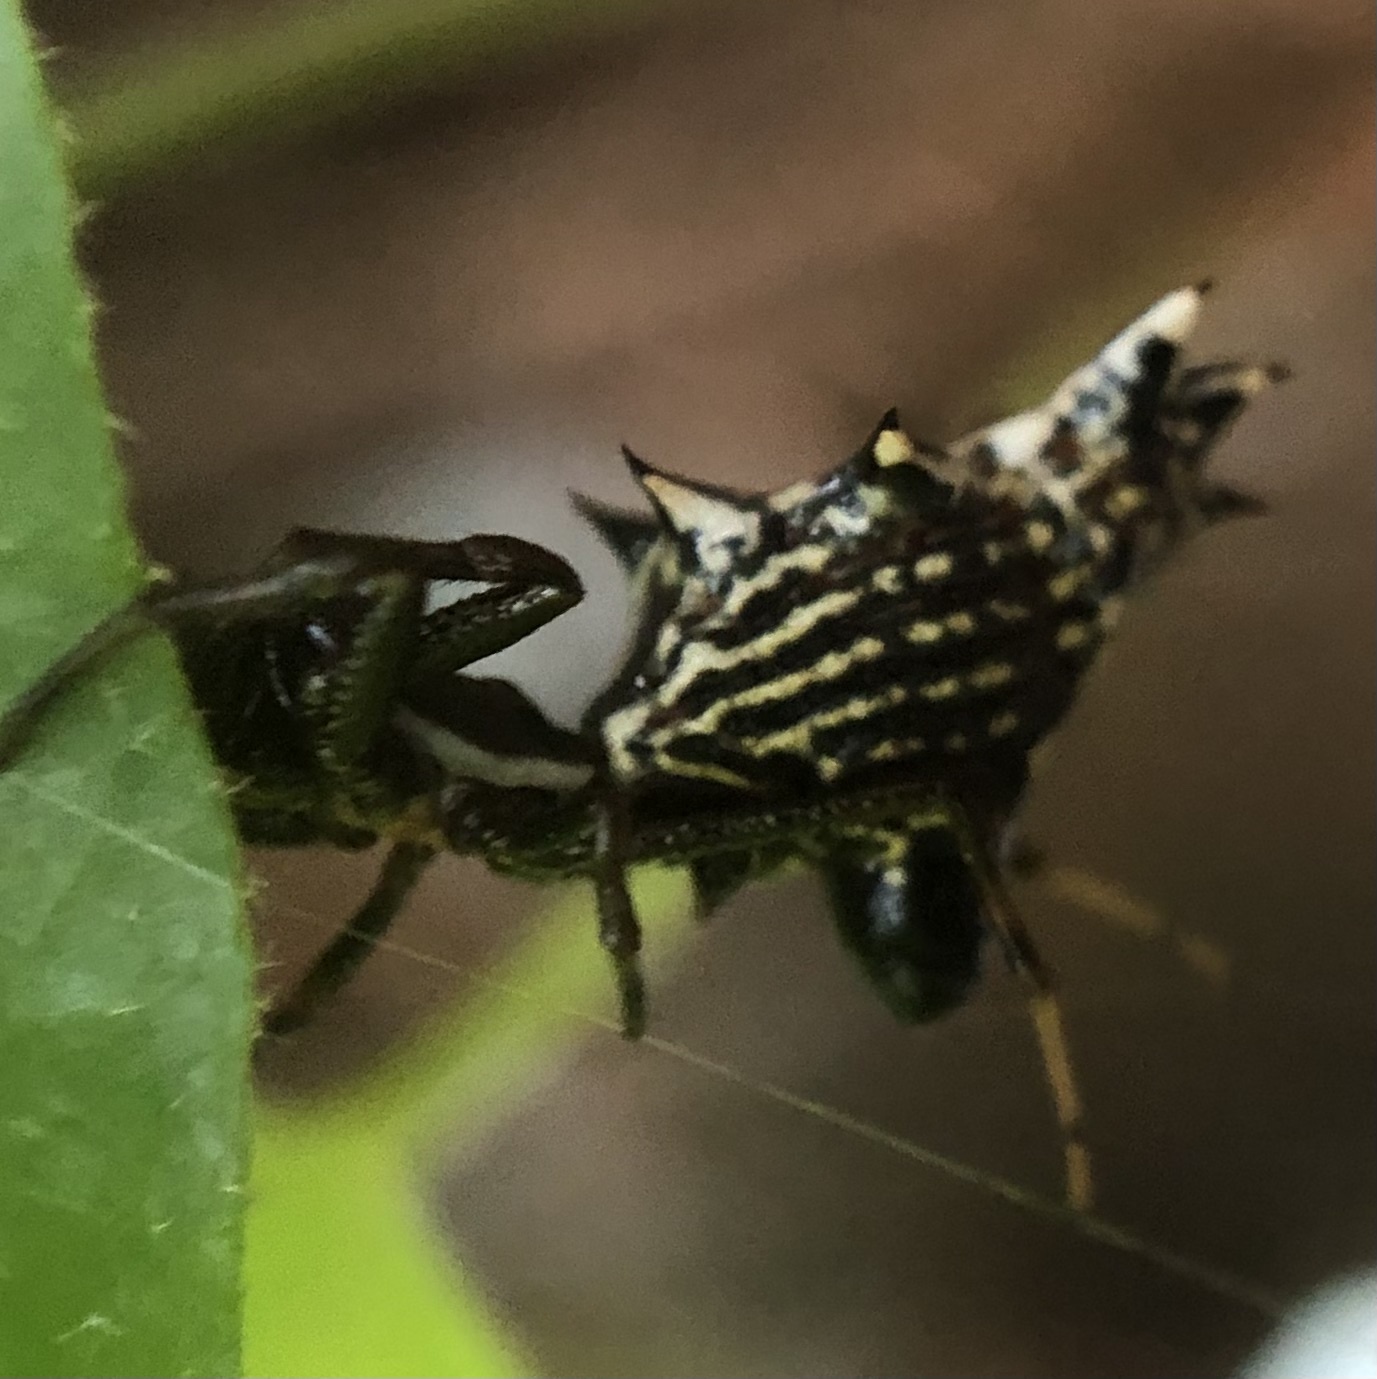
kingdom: Animalia
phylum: Arthropoda
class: Arachnida
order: Araneae
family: Araneidae
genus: Micrathena
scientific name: Micrathena gracilis
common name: Orb weavers
